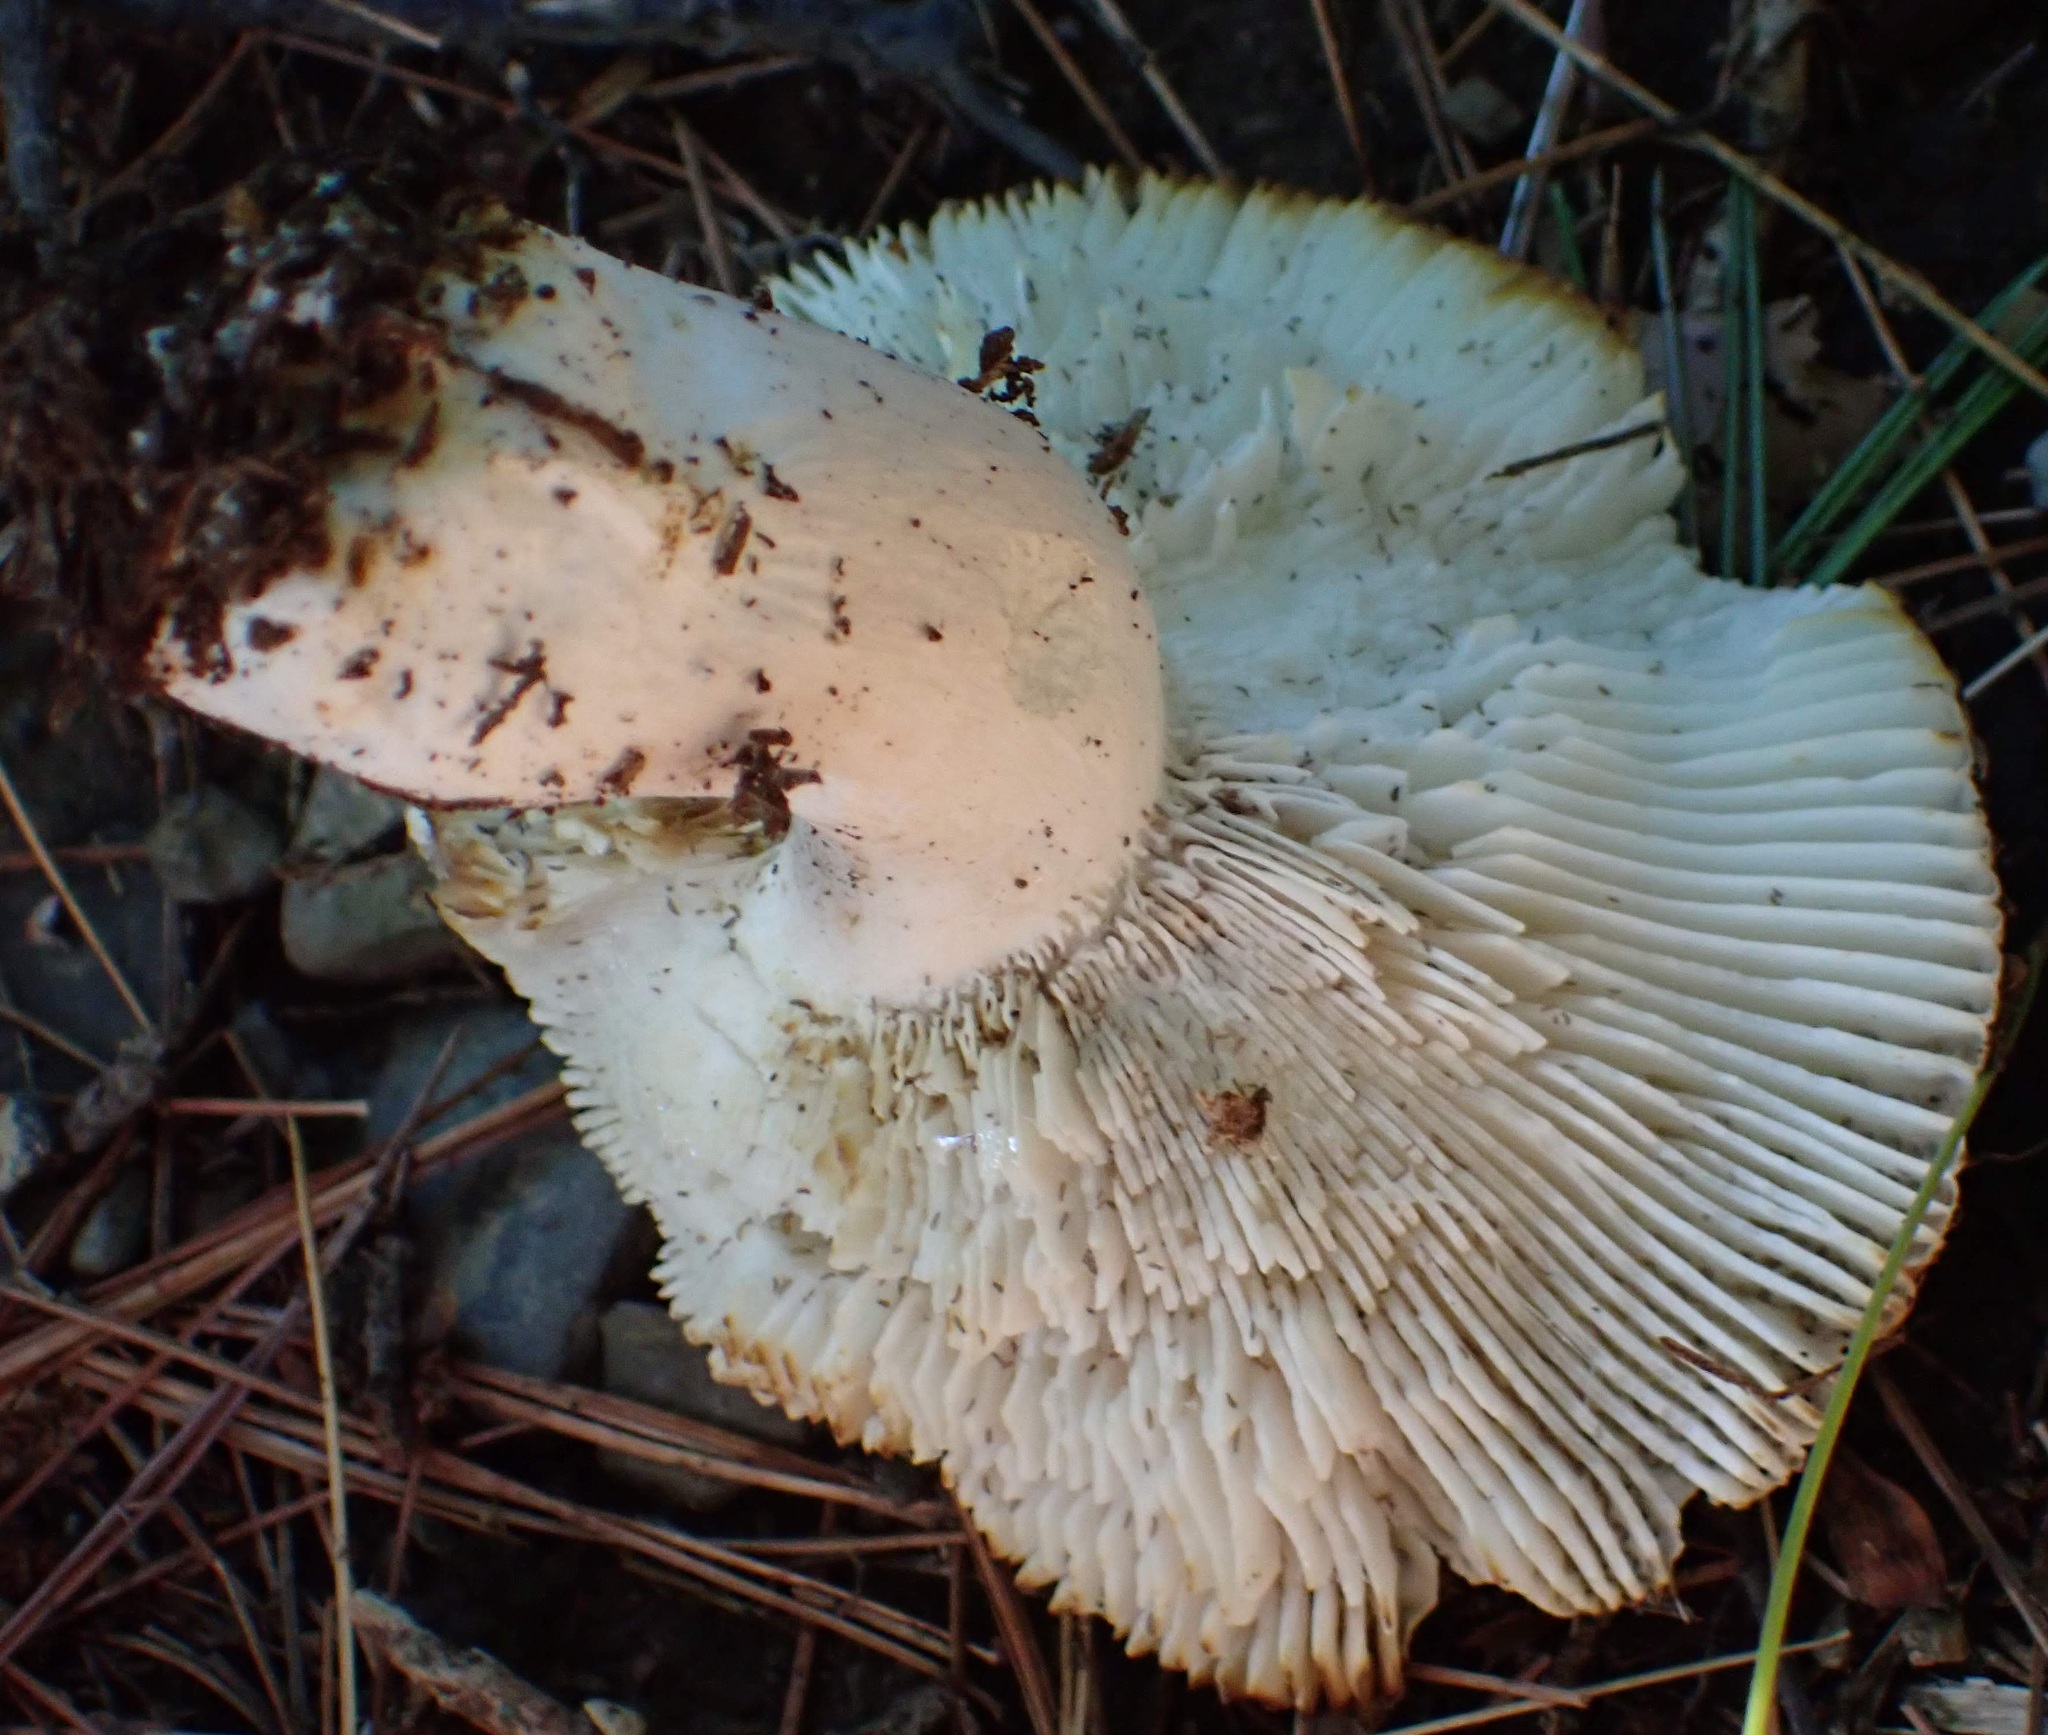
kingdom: Fungi
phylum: Basidiomycota
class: Agaricomycetes
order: Russulales
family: Russulaceae
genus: Russula
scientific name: Russula
